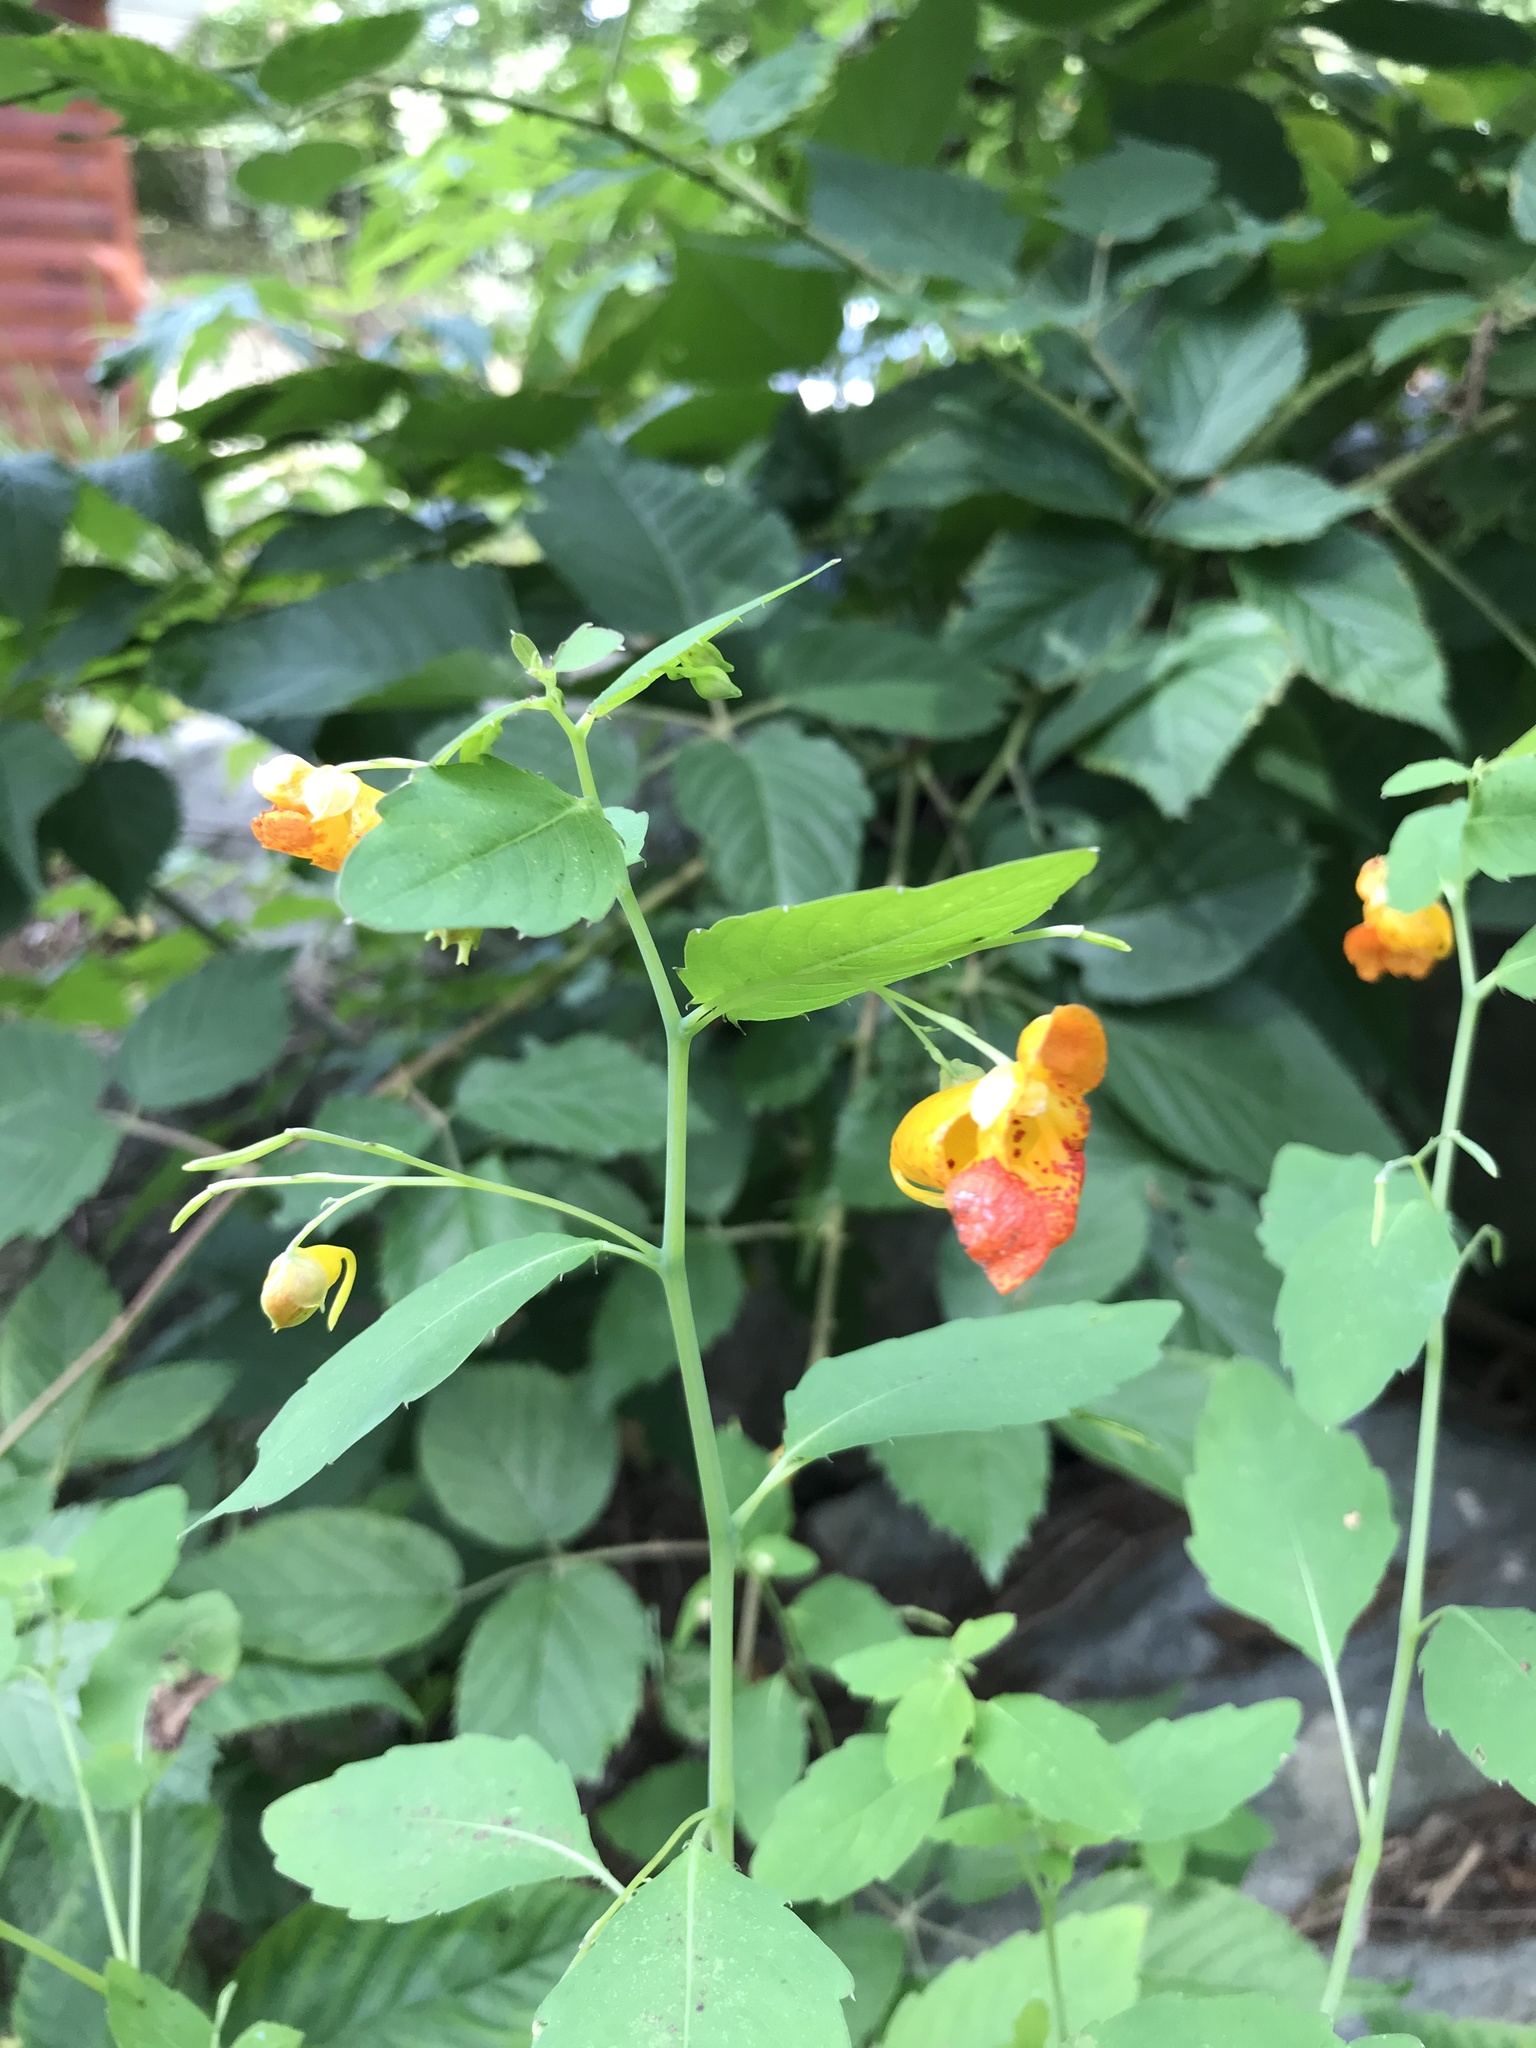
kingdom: Plantae
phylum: Tracheophyta
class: Magnoliopsida
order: Ericales
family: Balsaminaceae
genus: Impatiens
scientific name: Impatiens capensis
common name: Orange balsam
